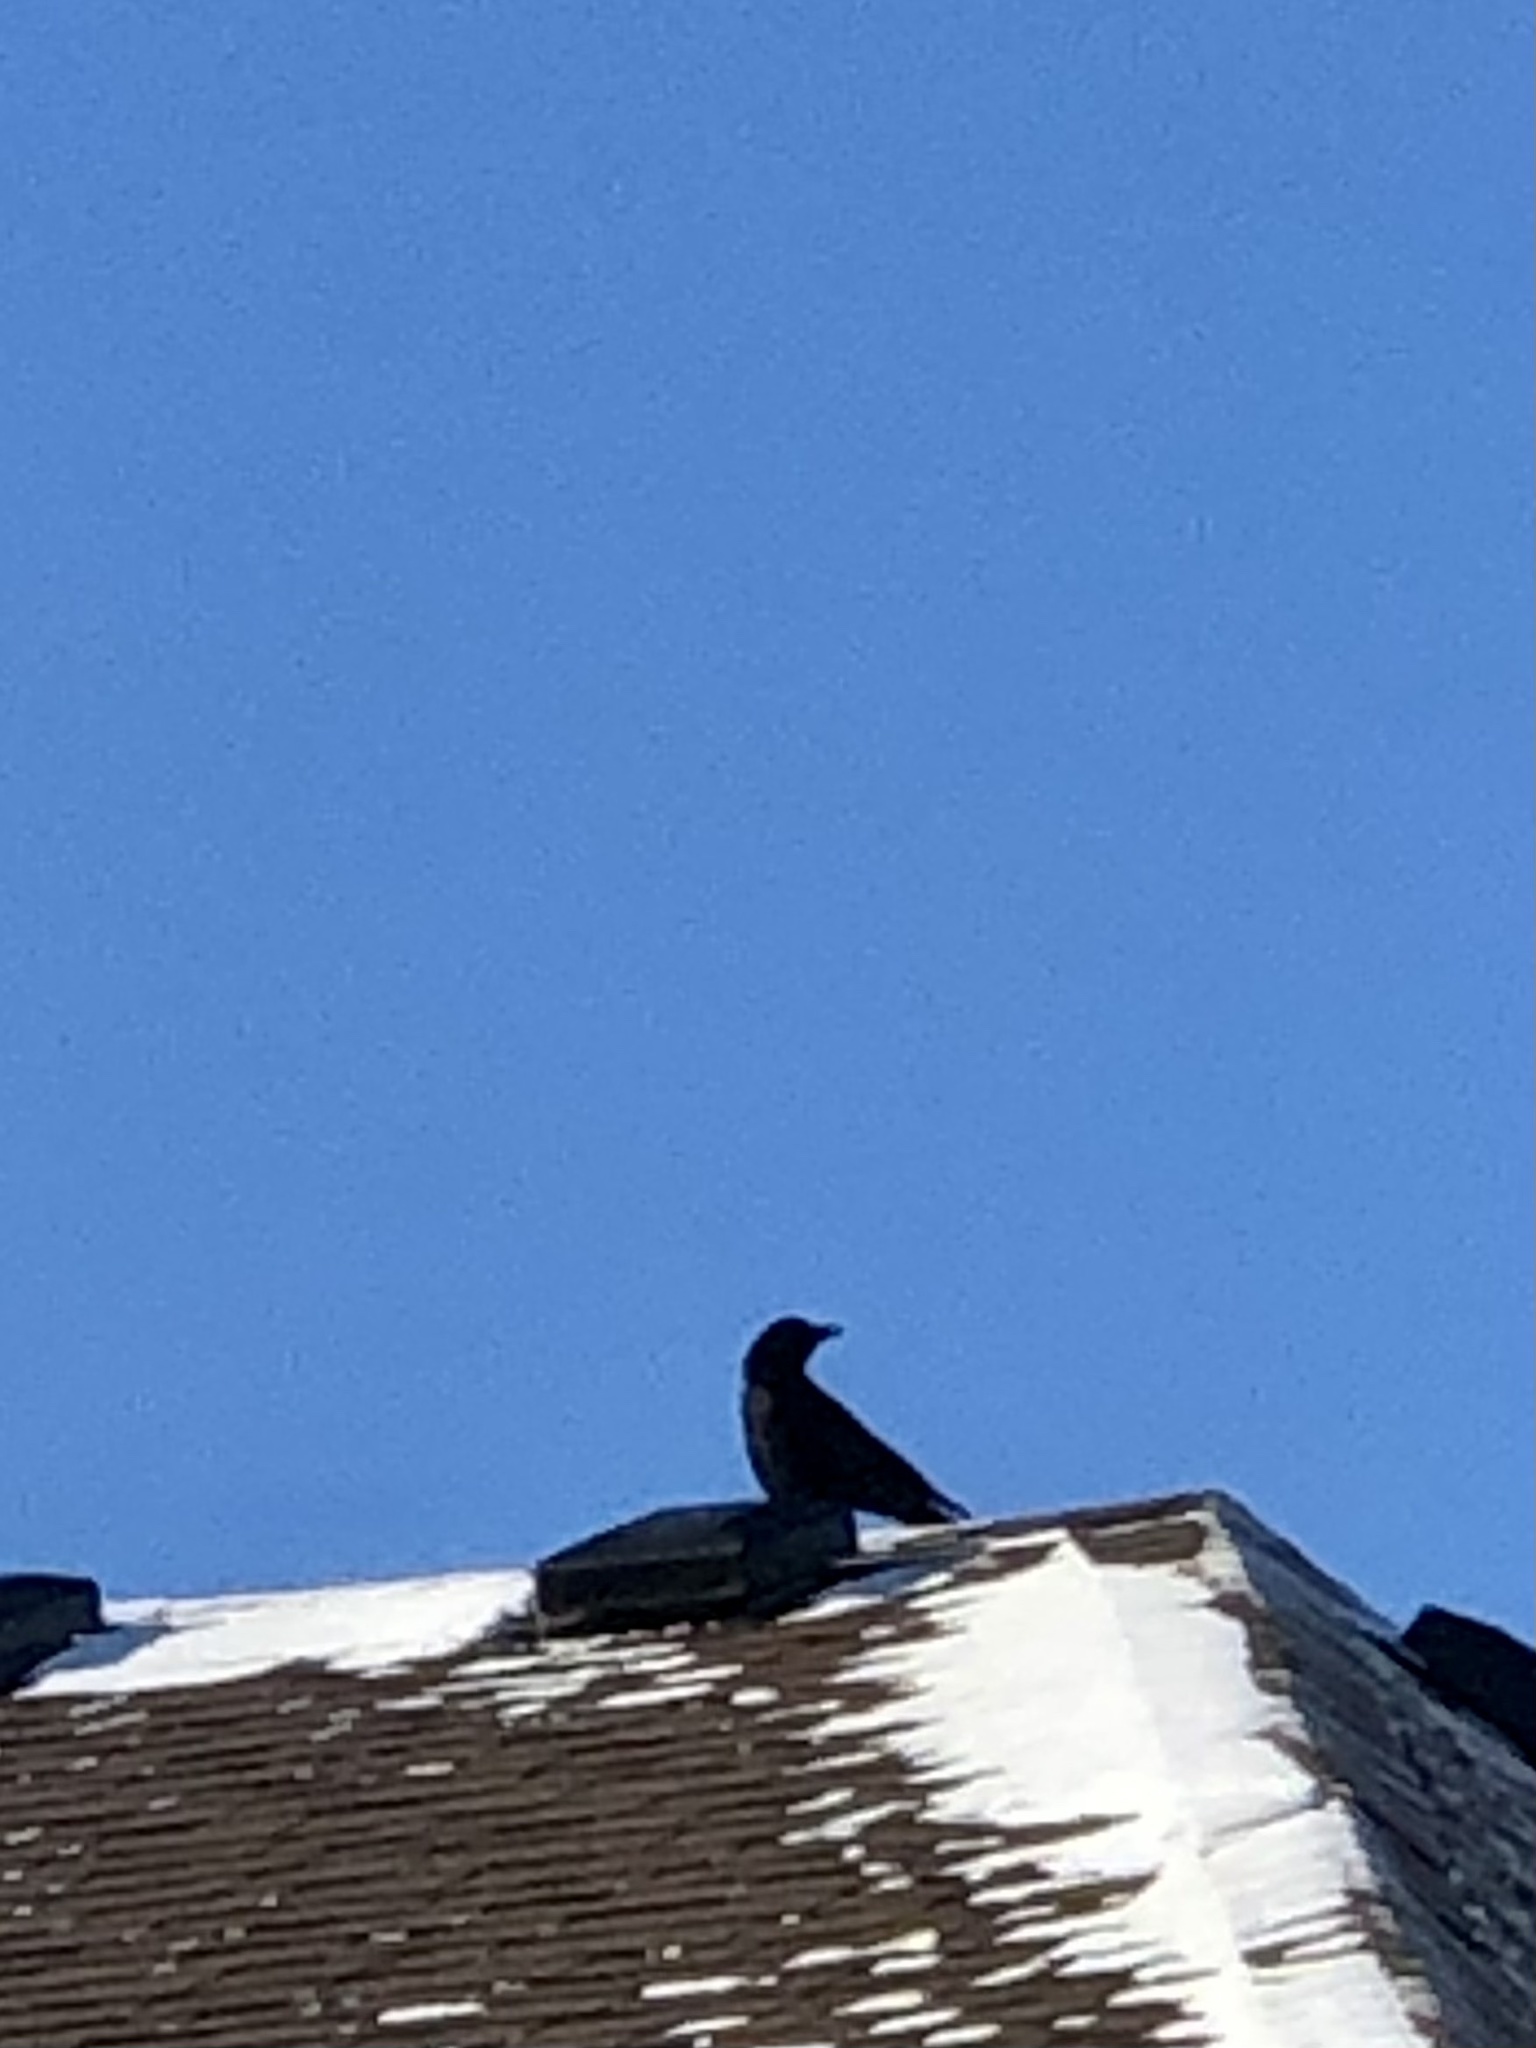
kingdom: Animalia
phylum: Chordata
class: Aves
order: Passeriformes
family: Corvidae
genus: Corvus
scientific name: Corvus brachyrhynchos
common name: American crow
